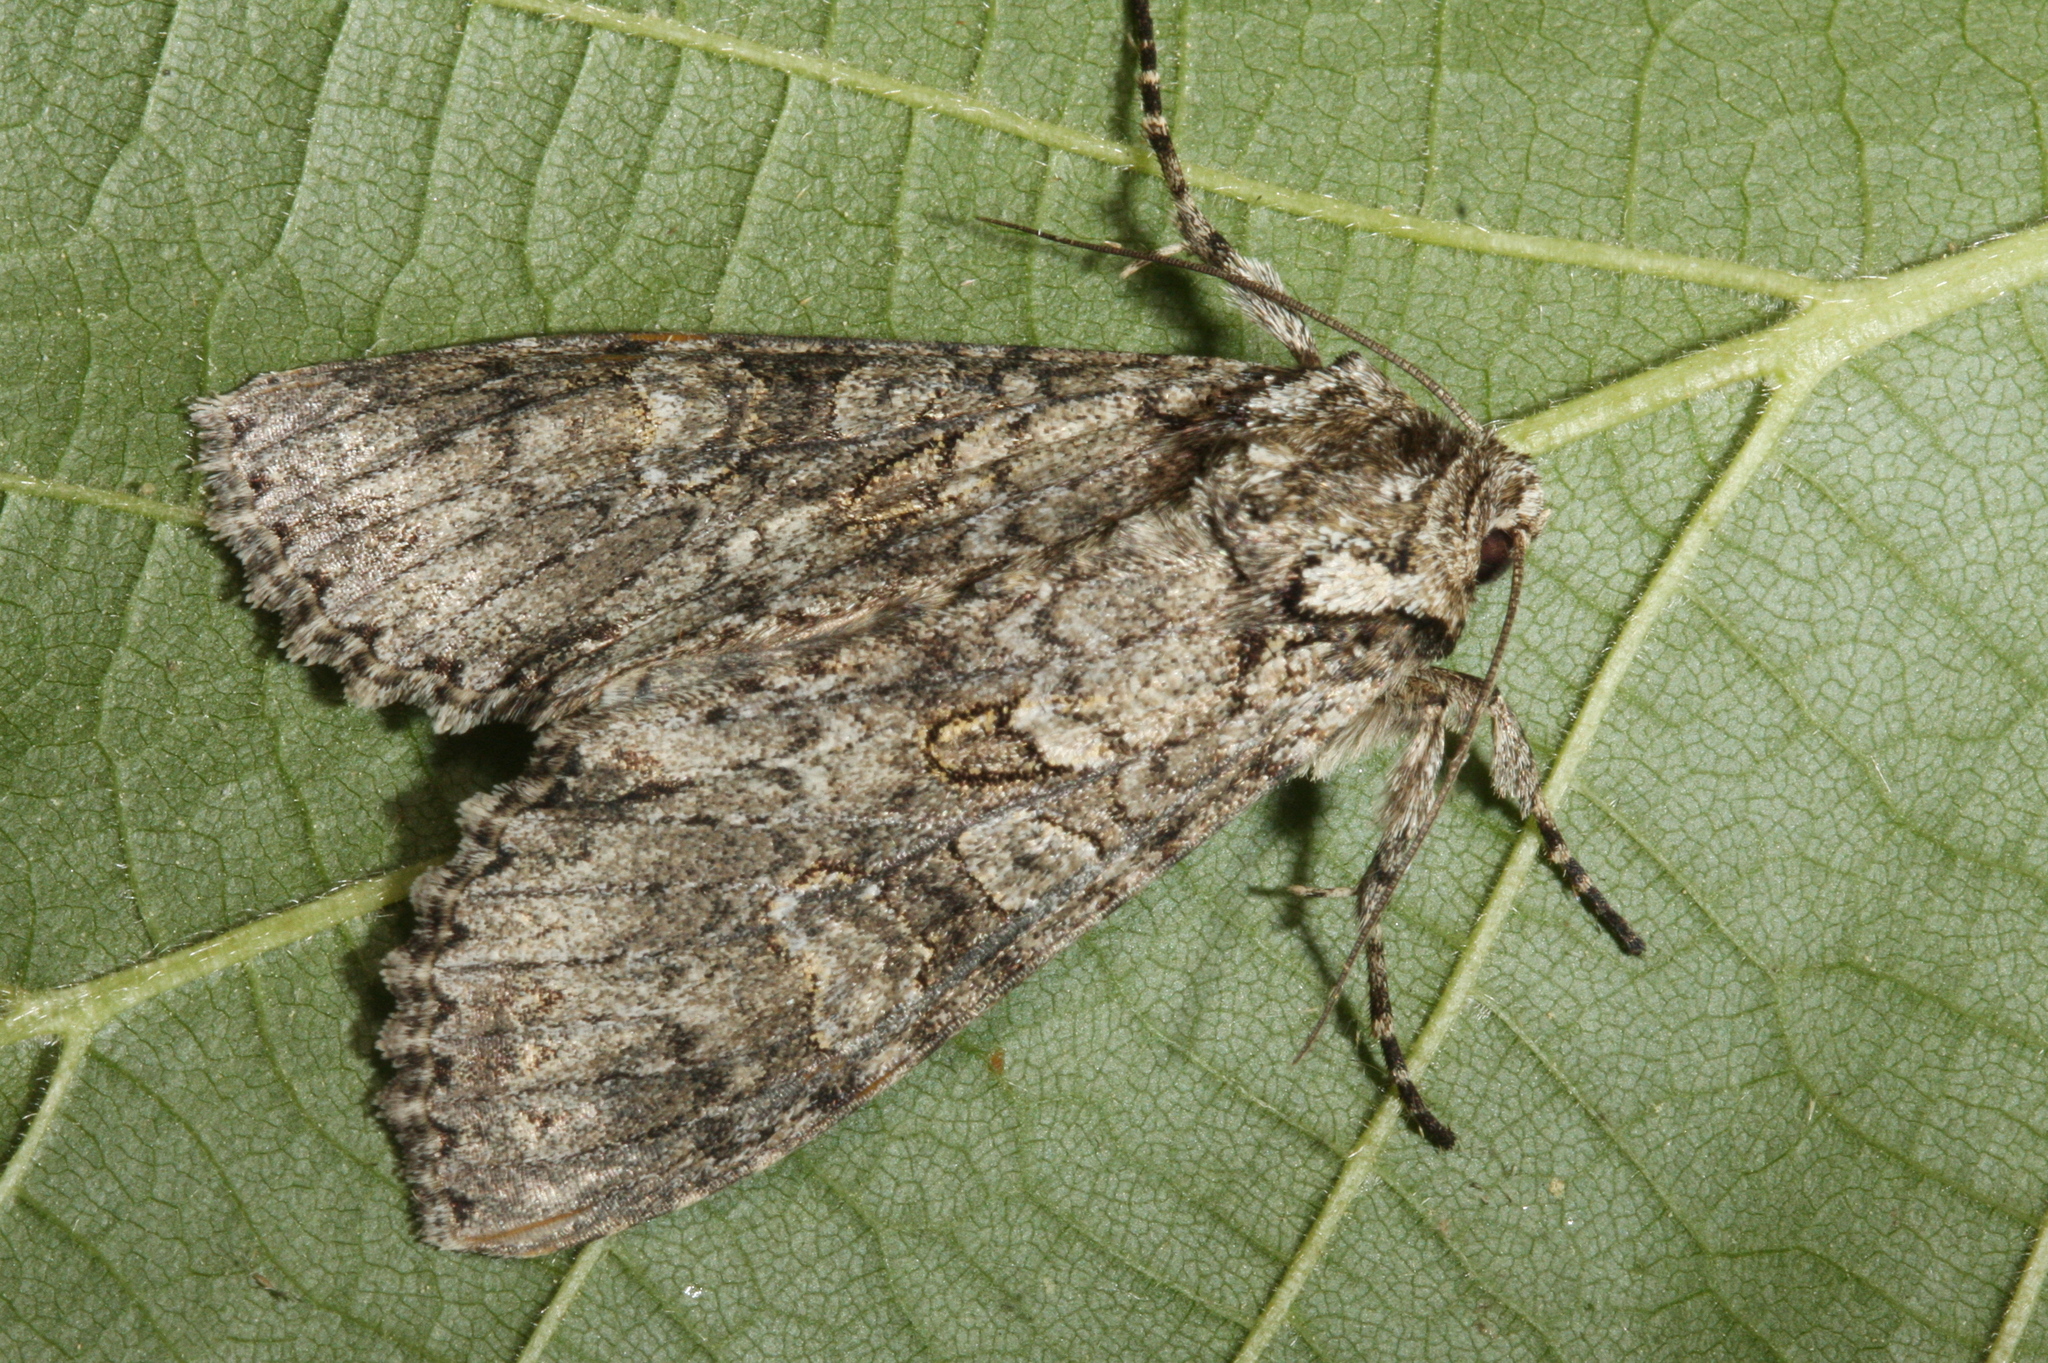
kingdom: Animalia
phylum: Arthropoda
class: Insecta
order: Lepidoptera
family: Noctuidae
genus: Polia
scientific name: Polia nebulosa
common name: Grey arches
